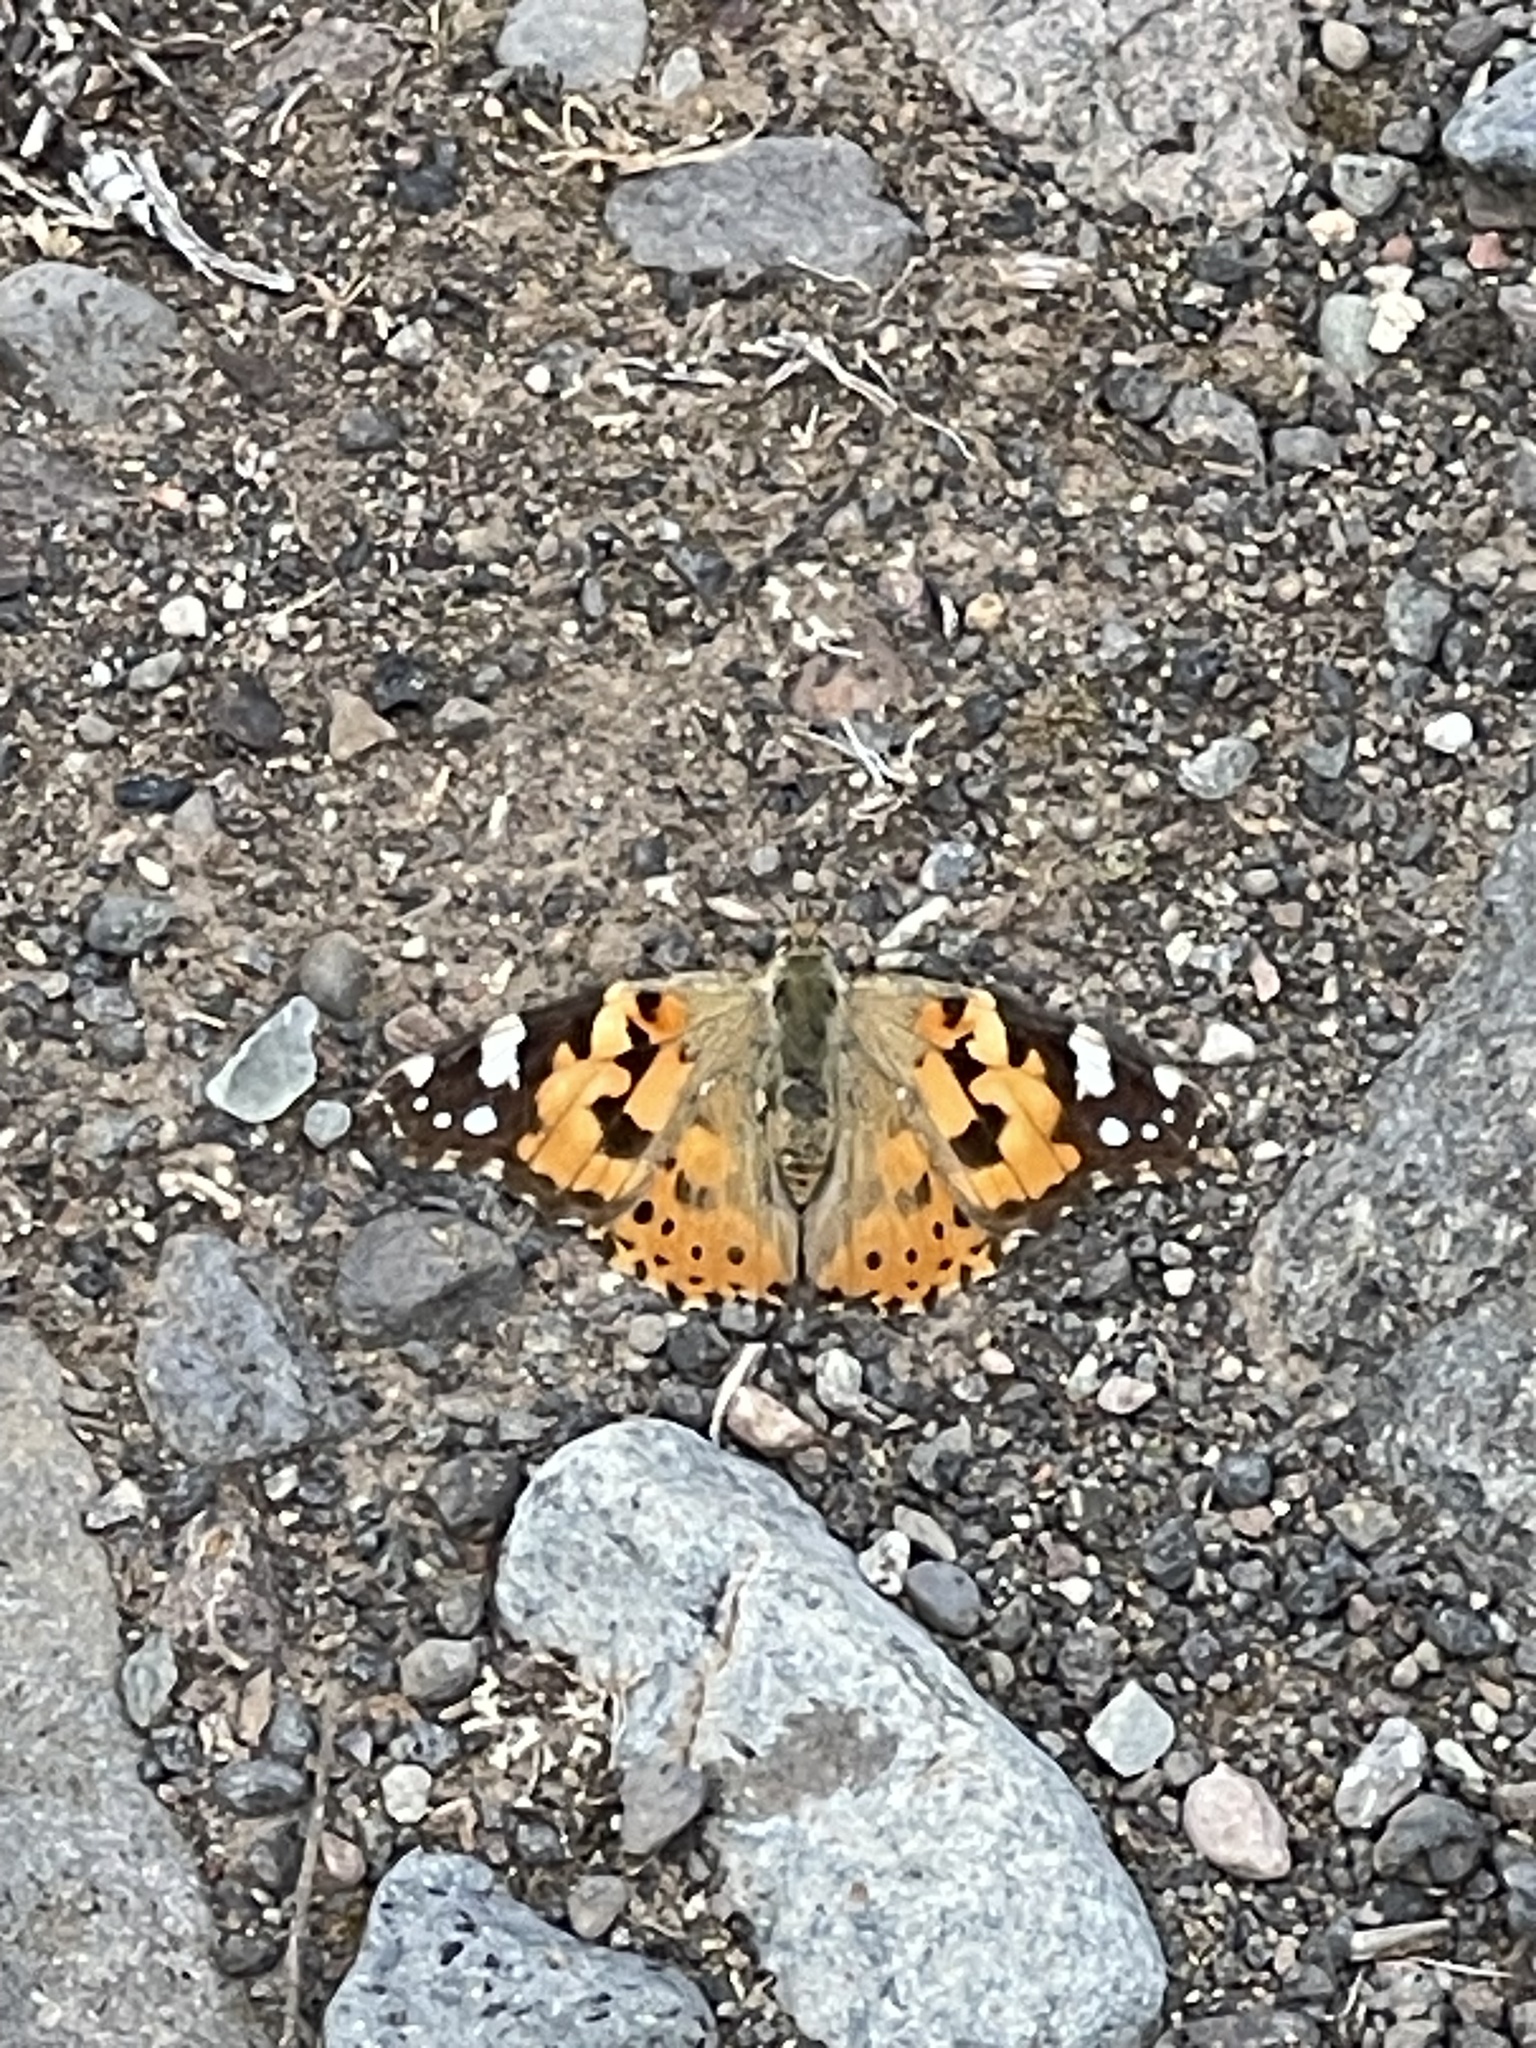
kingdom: Animalia
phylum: Arthropoda
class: Insecta
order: Lepidoptera
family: Nymphalidae
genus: Vanessa
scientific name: Vanessa cardui
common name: Painted lady
